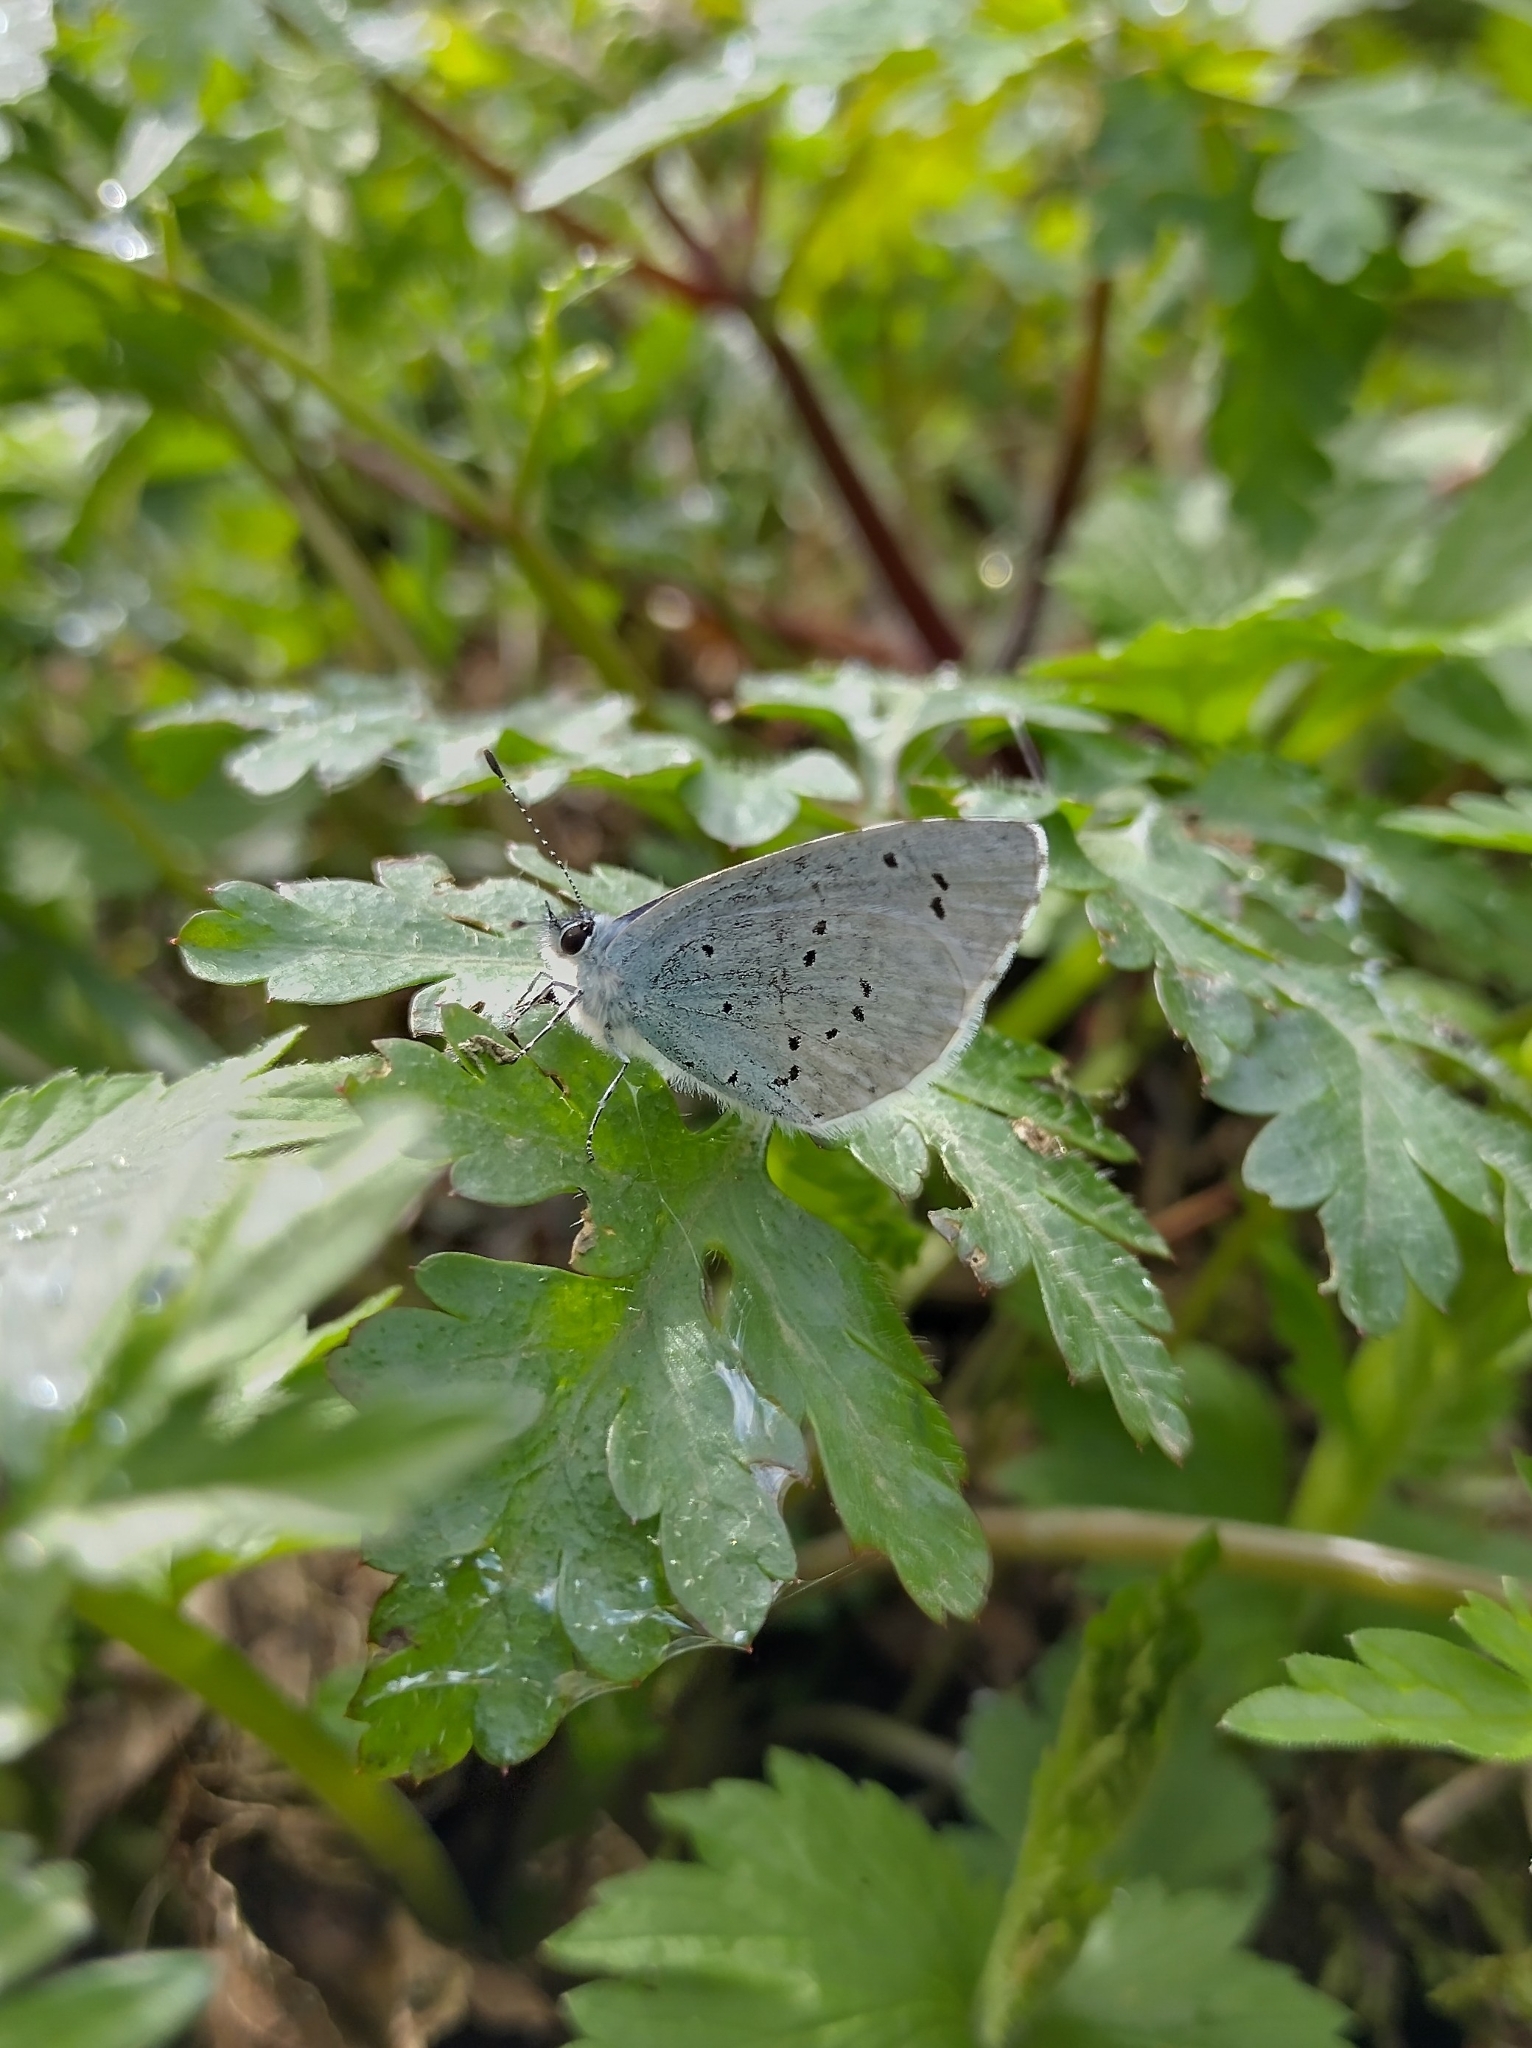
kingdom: Animalia
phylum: Arthropoda
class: Insecta
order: Lepidoptera
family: Lycaenidae
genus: Celastrina
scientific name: Celastrina argiolus
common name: Holly blue
